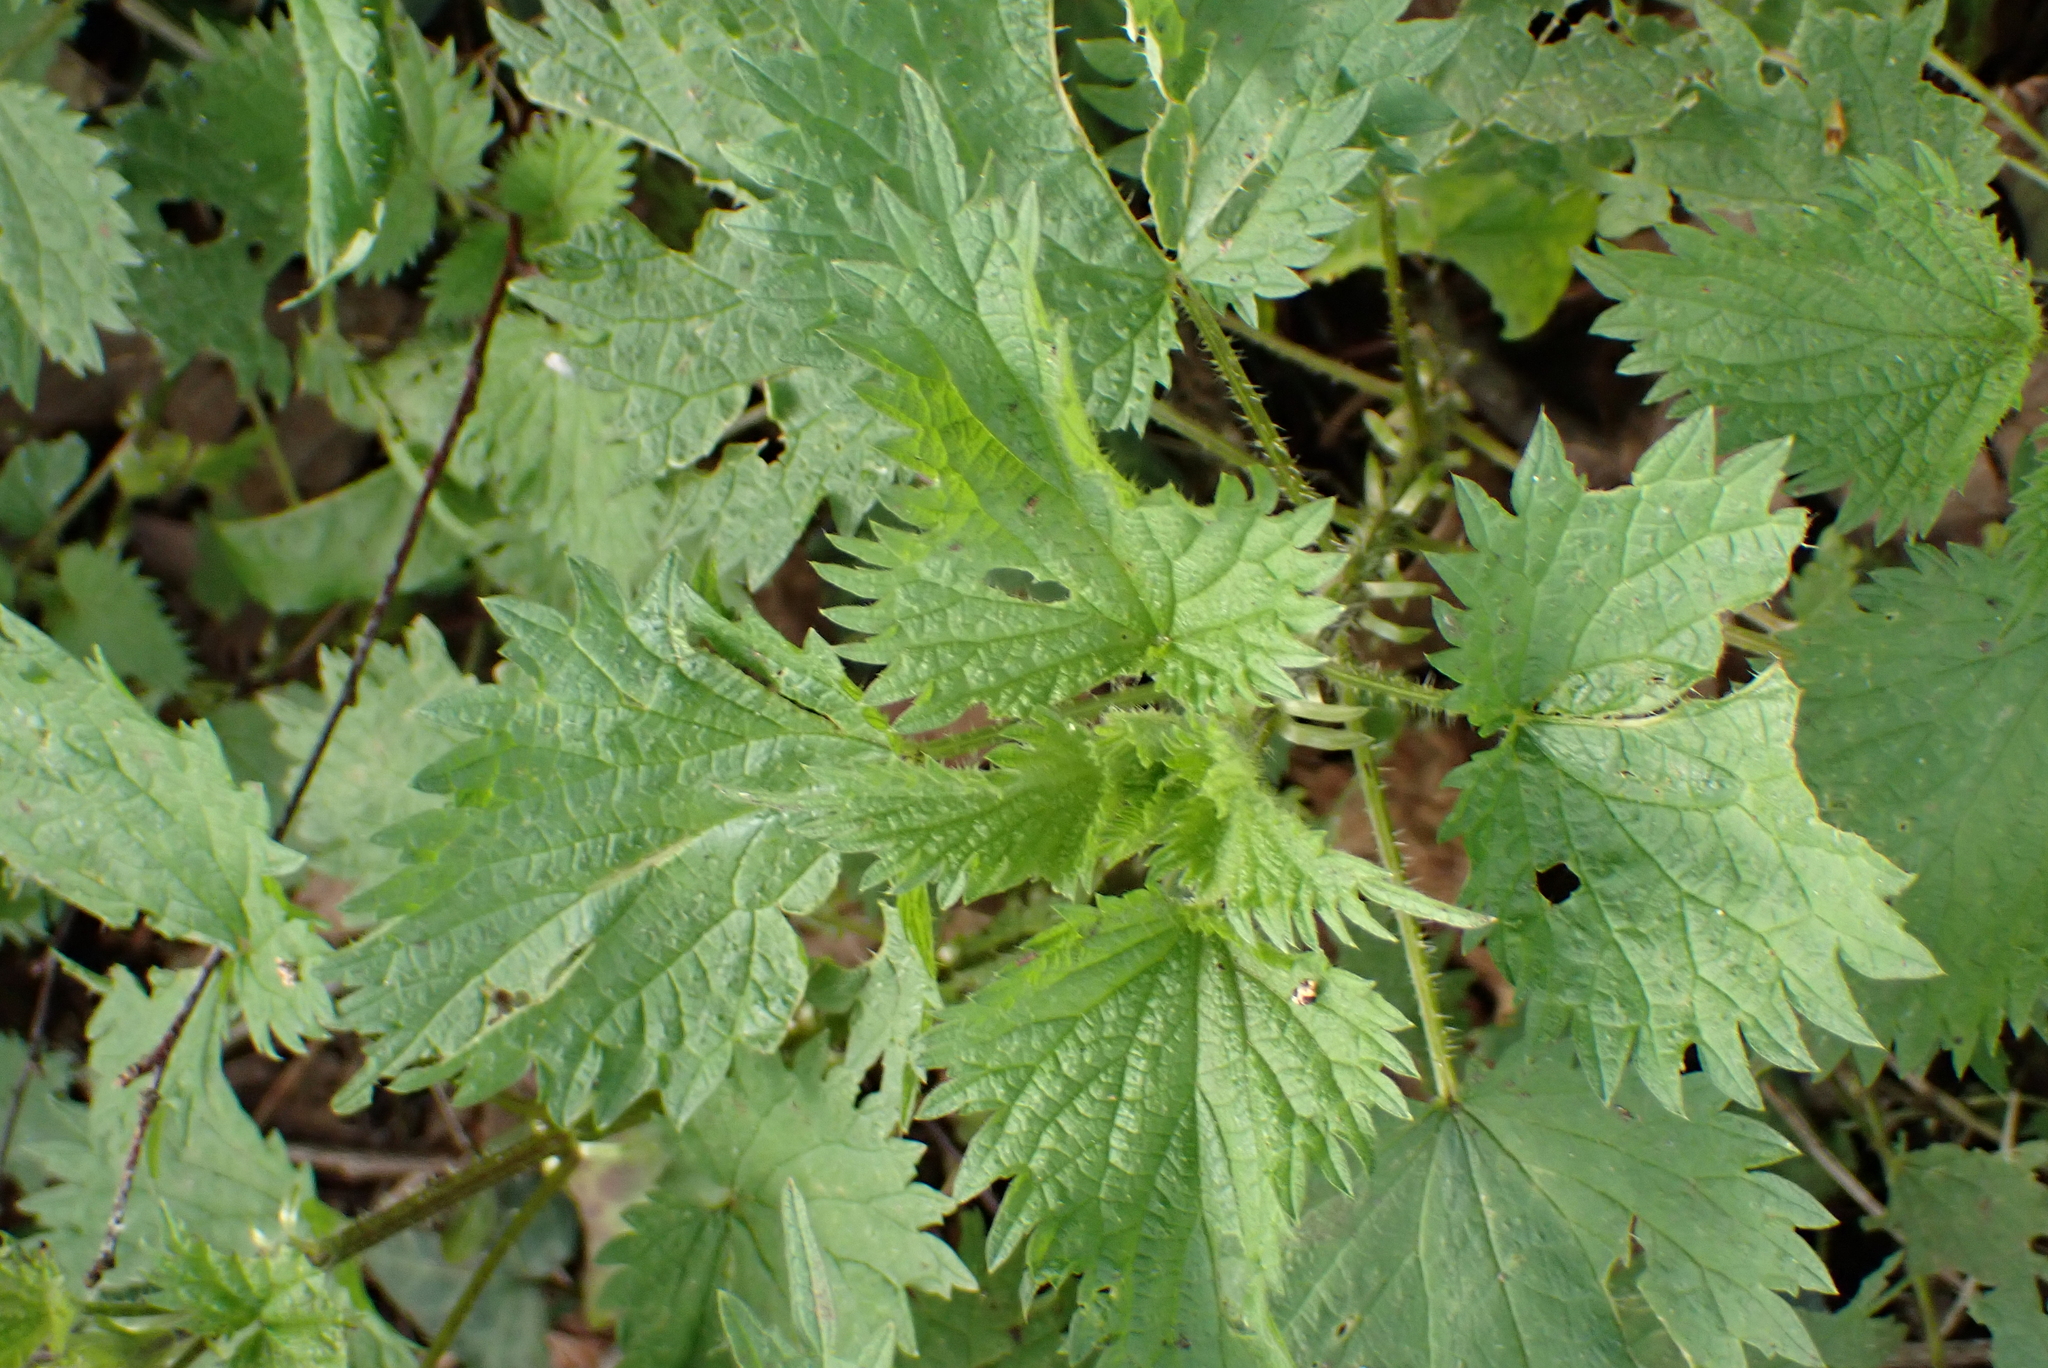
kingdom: Plantae
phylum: Tracheophyta
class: Magnoliopsida
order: Rosales
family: Urticaceae
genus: Urtica
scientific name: Urtica dioica
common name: Common nettle
